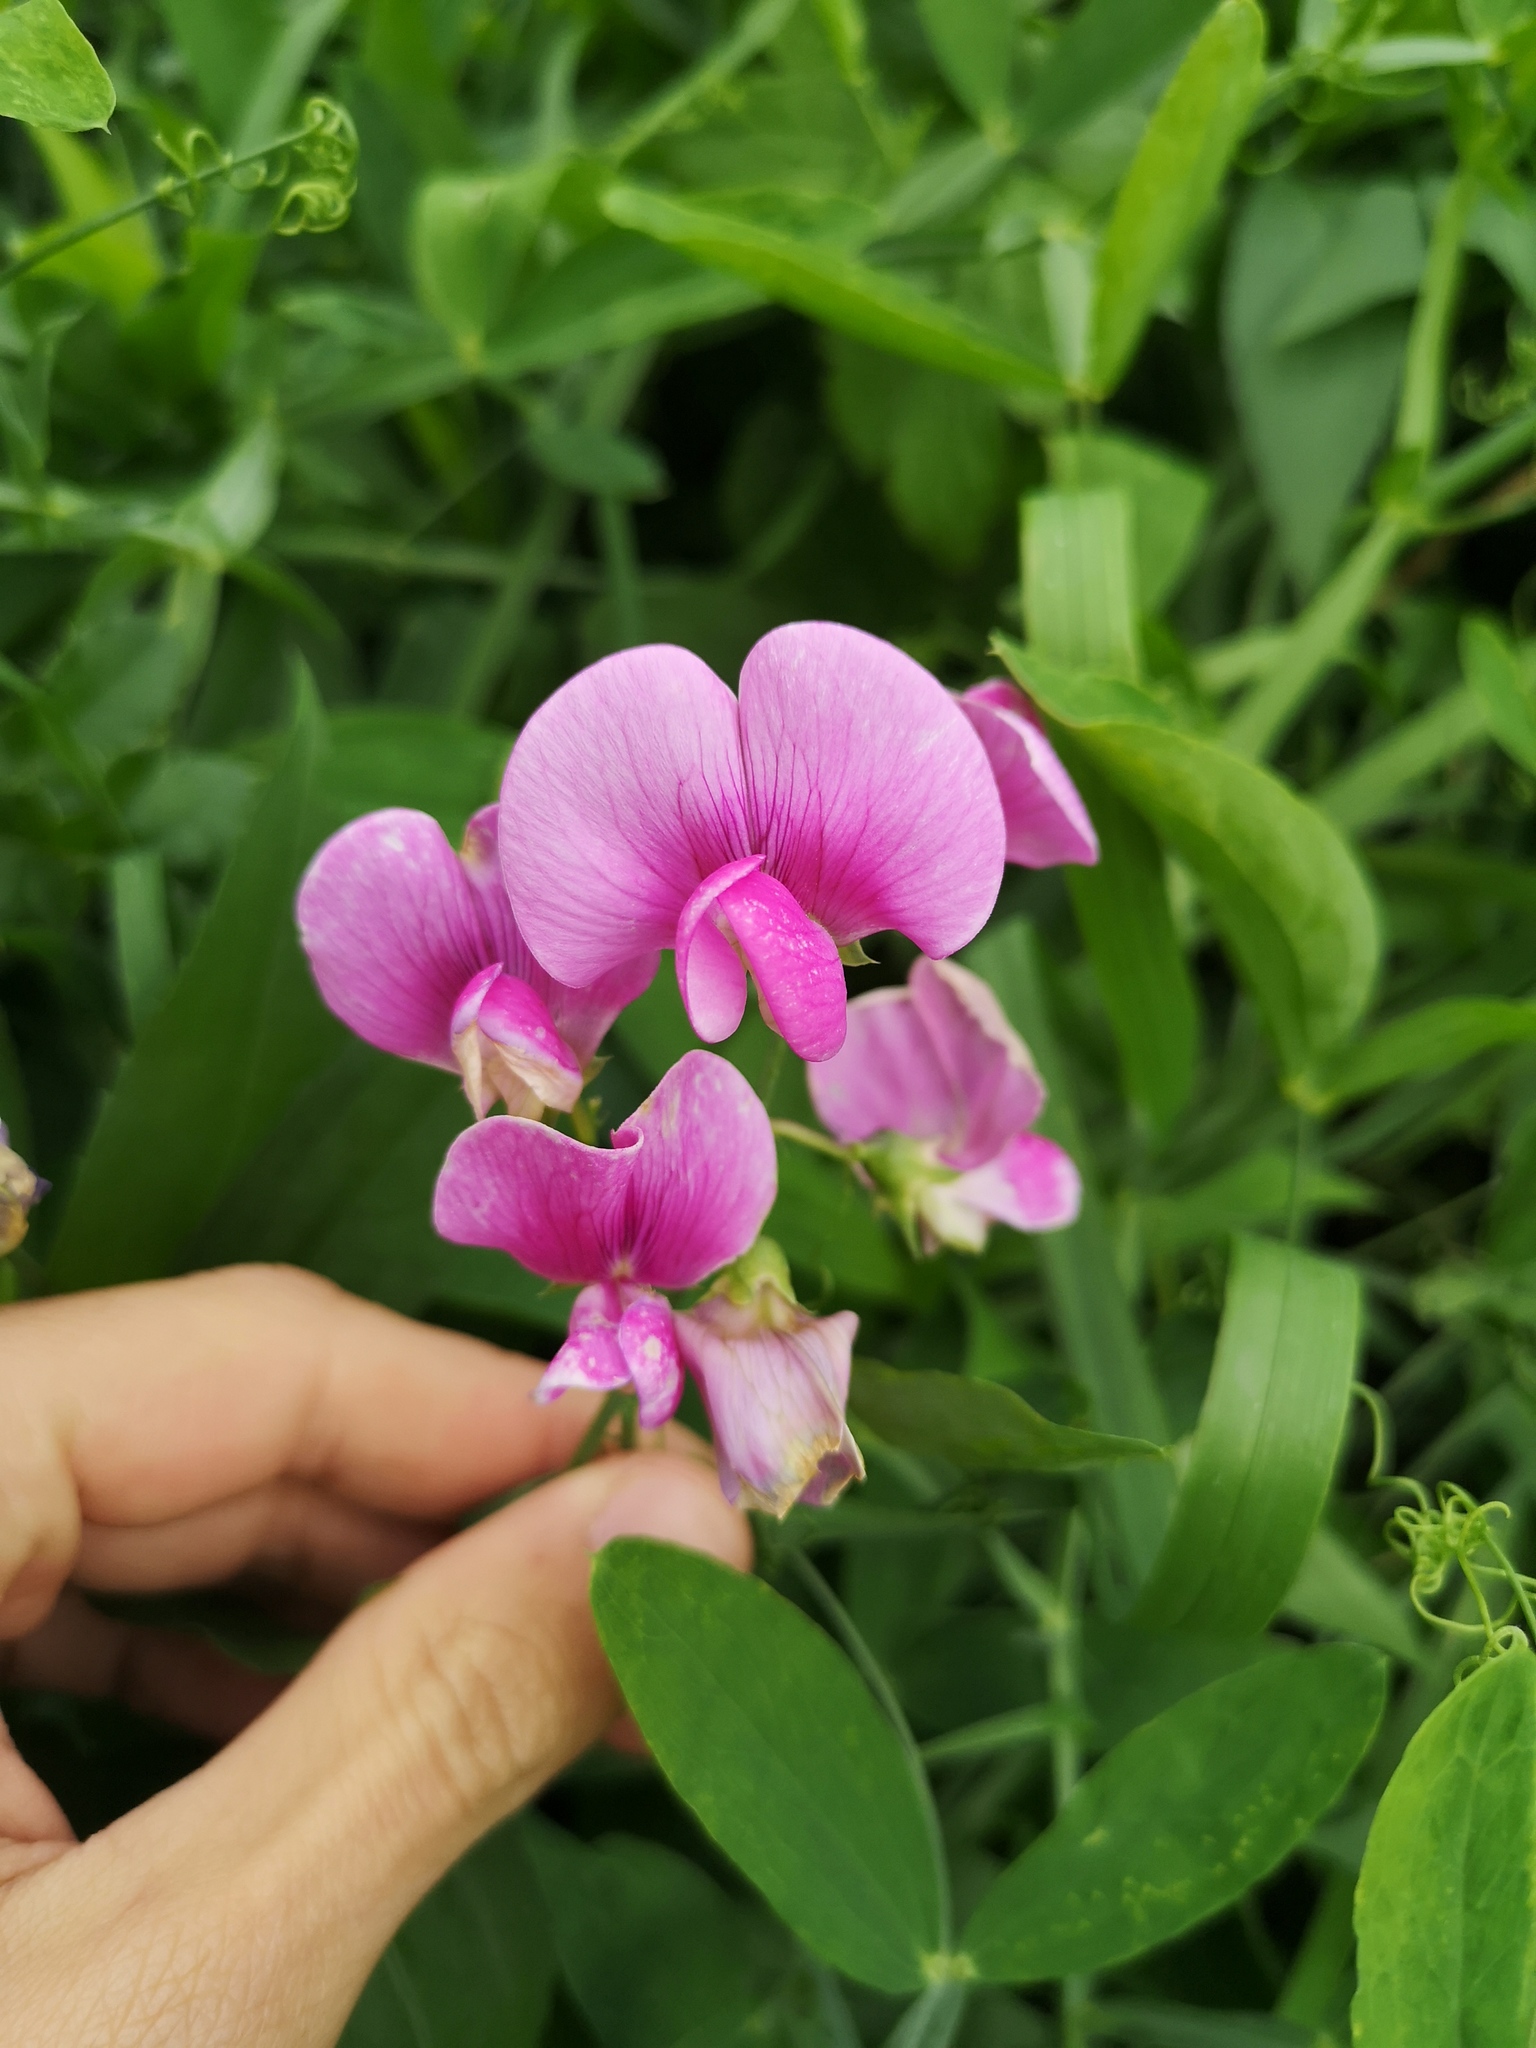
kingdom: Plantae
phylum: Tracheophyta
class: Magnoliopsida
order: Fabales
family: Fabaceae
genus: Lathyrus
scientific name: Lathyrus latifolius
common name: Perennial pea
